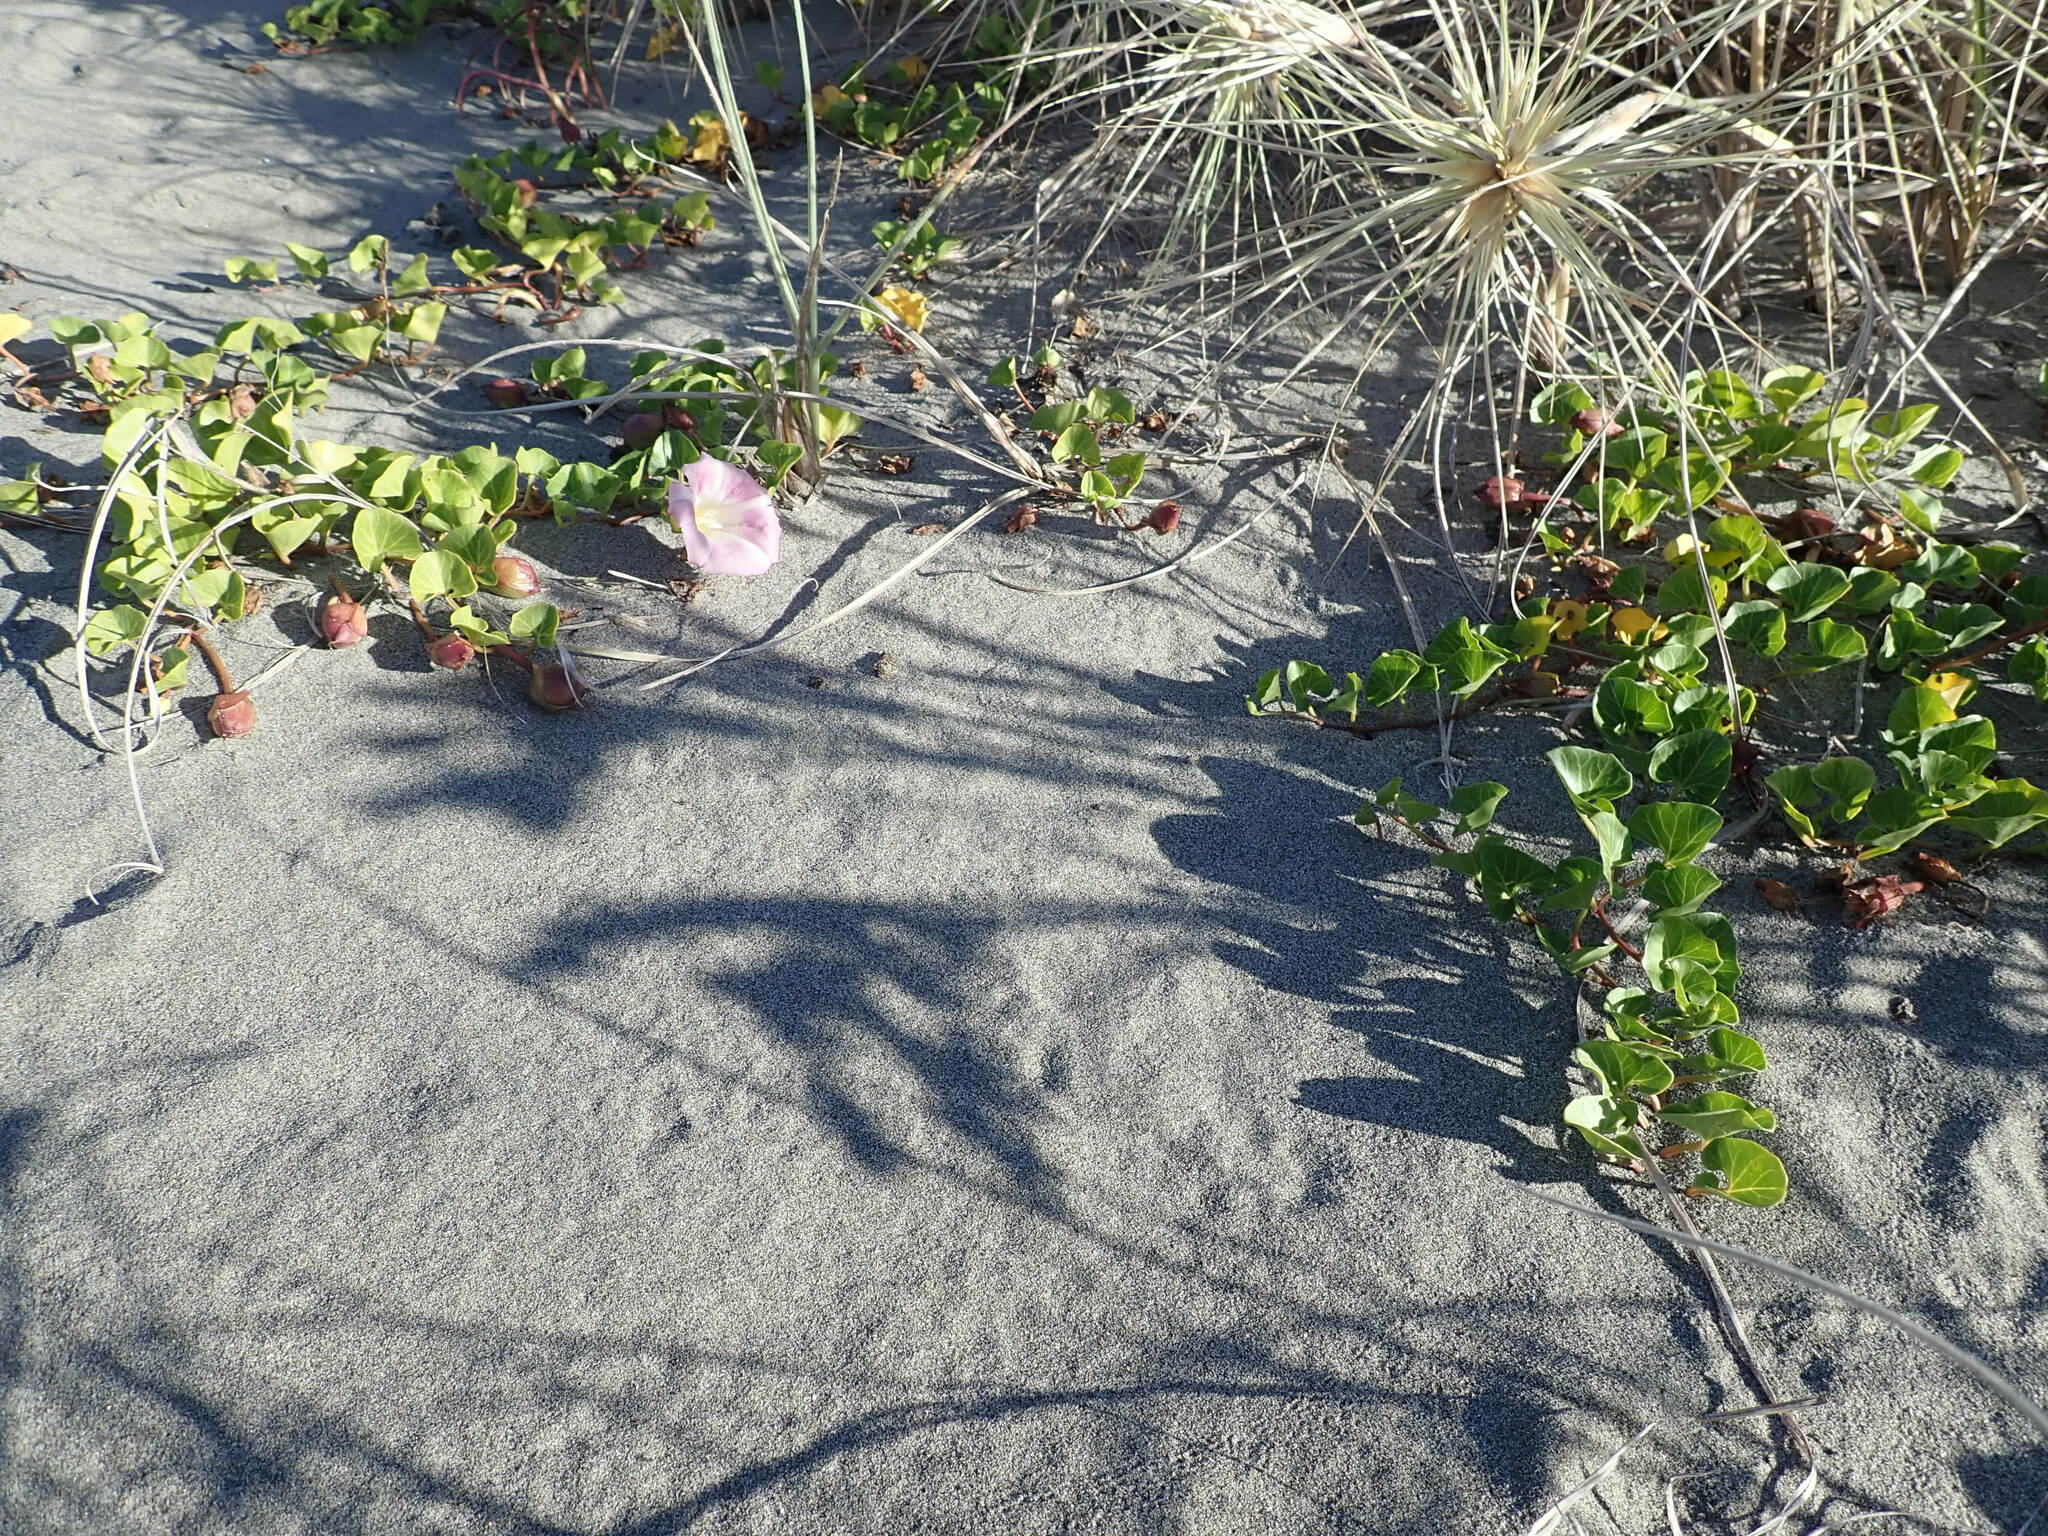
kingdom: Plantae
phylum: Tracheophyta
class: Magnoliopsida
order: Solanales
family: Convolvulaceae
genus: Calystegia
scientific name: Calystegia soldanella
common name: Sea bindweed
